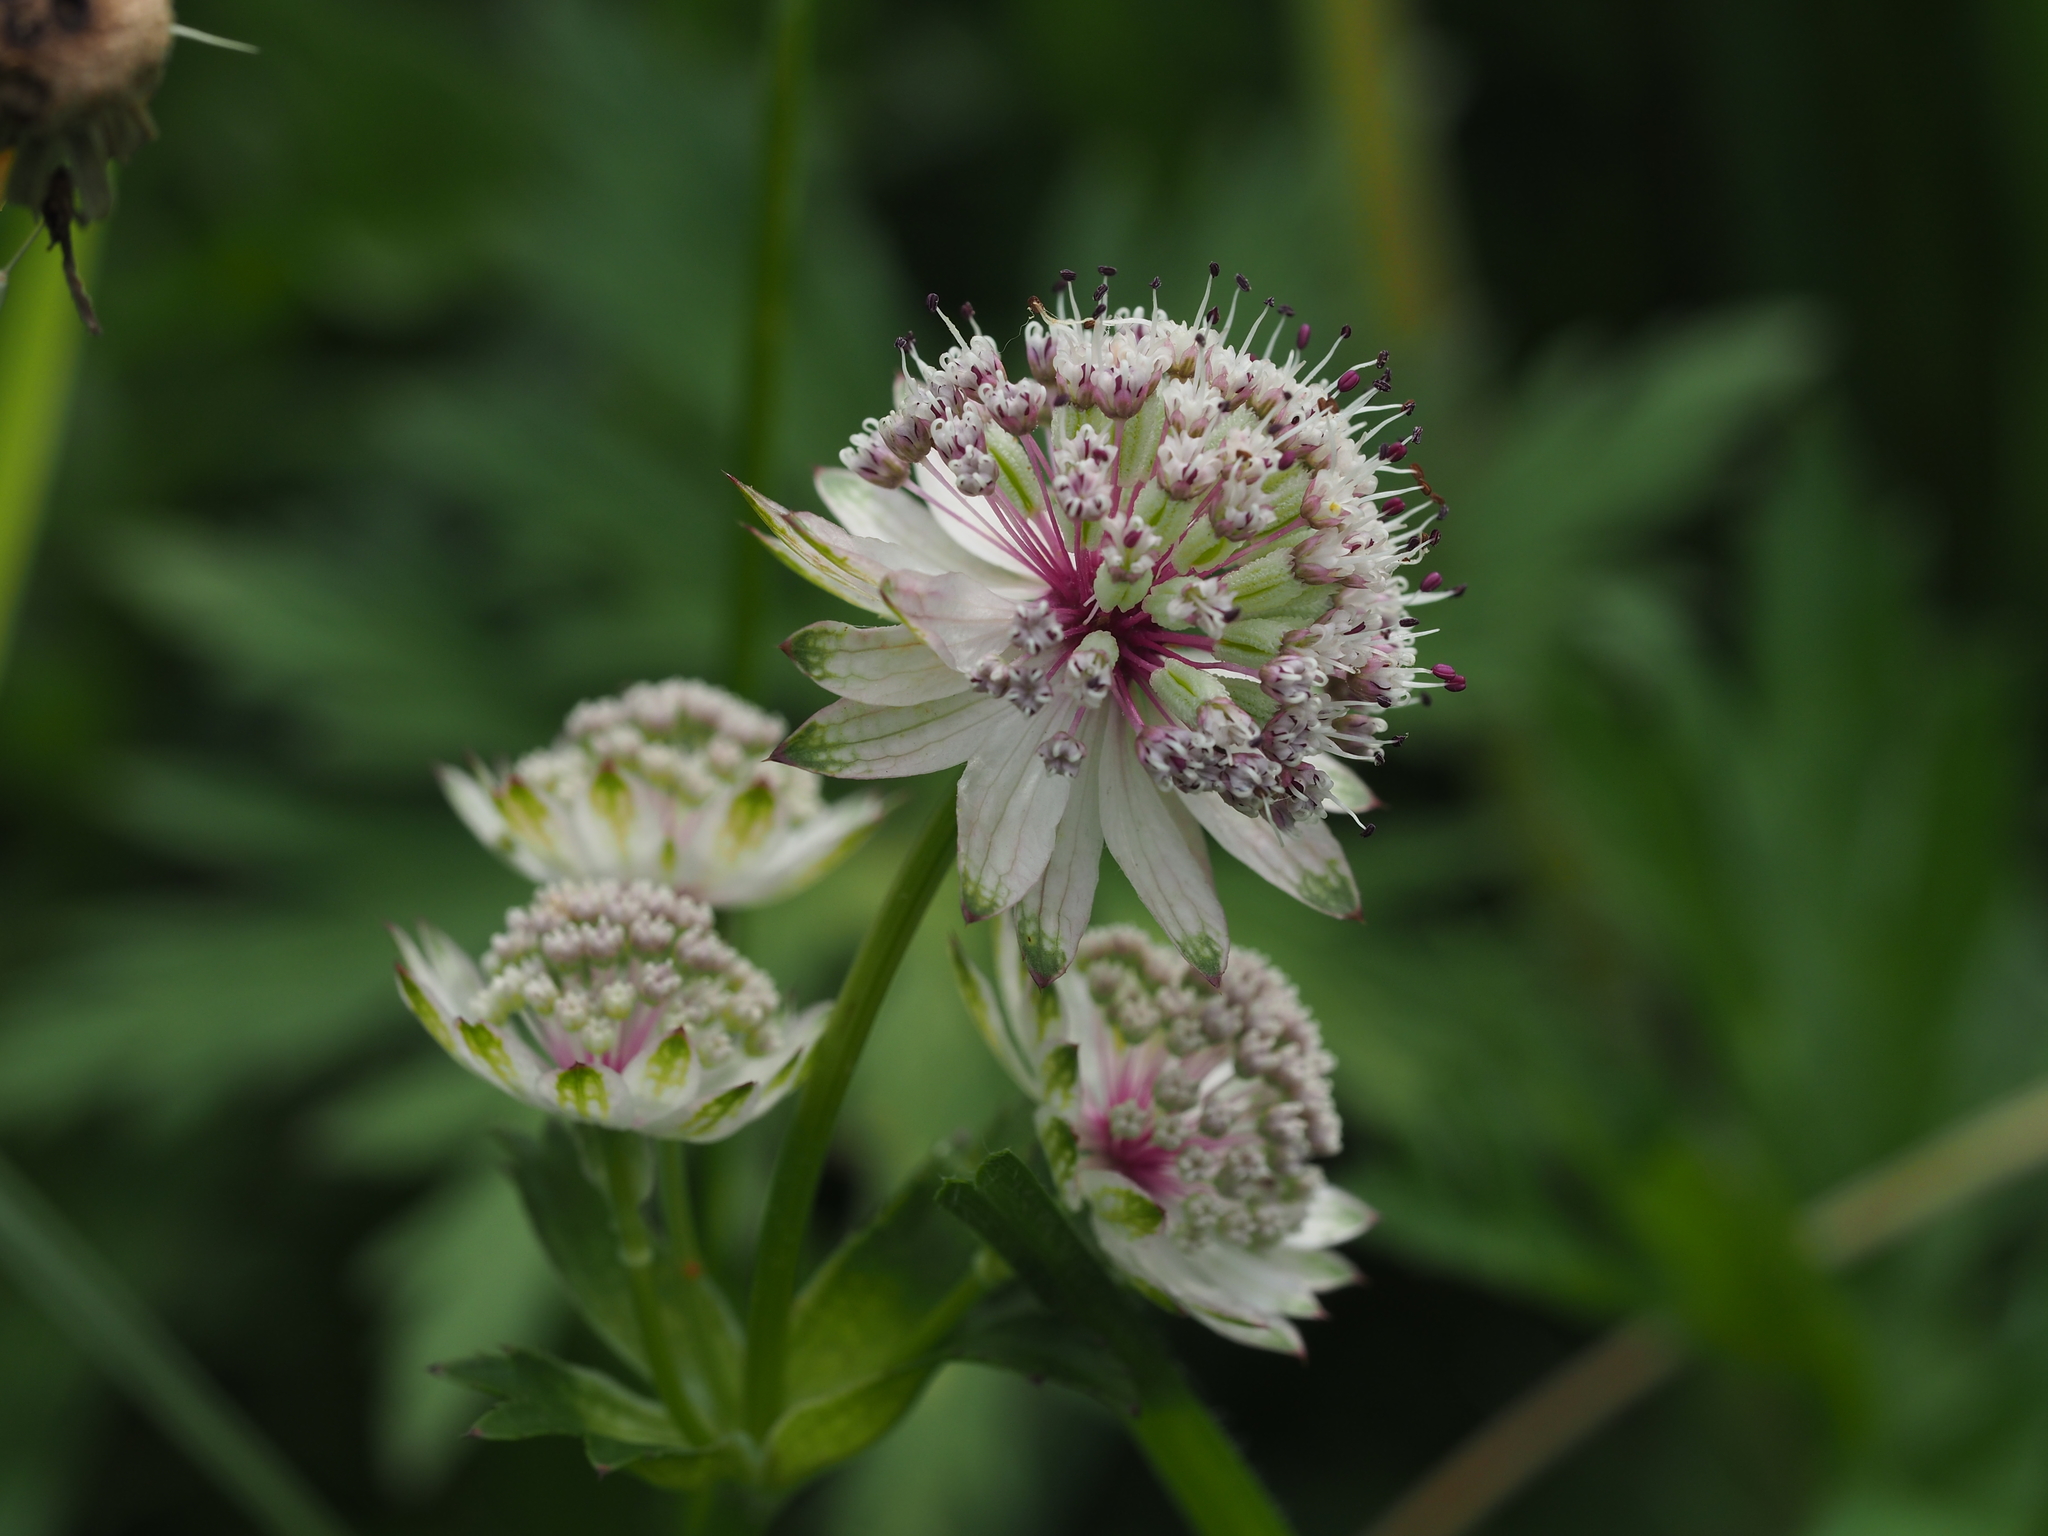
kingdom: Plantae
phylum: Tracheophyta
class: Magnoliopsida
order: Apiales
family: Apiaceae
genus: Astrantia
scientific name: Astrantia major
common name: Greater masterwort
